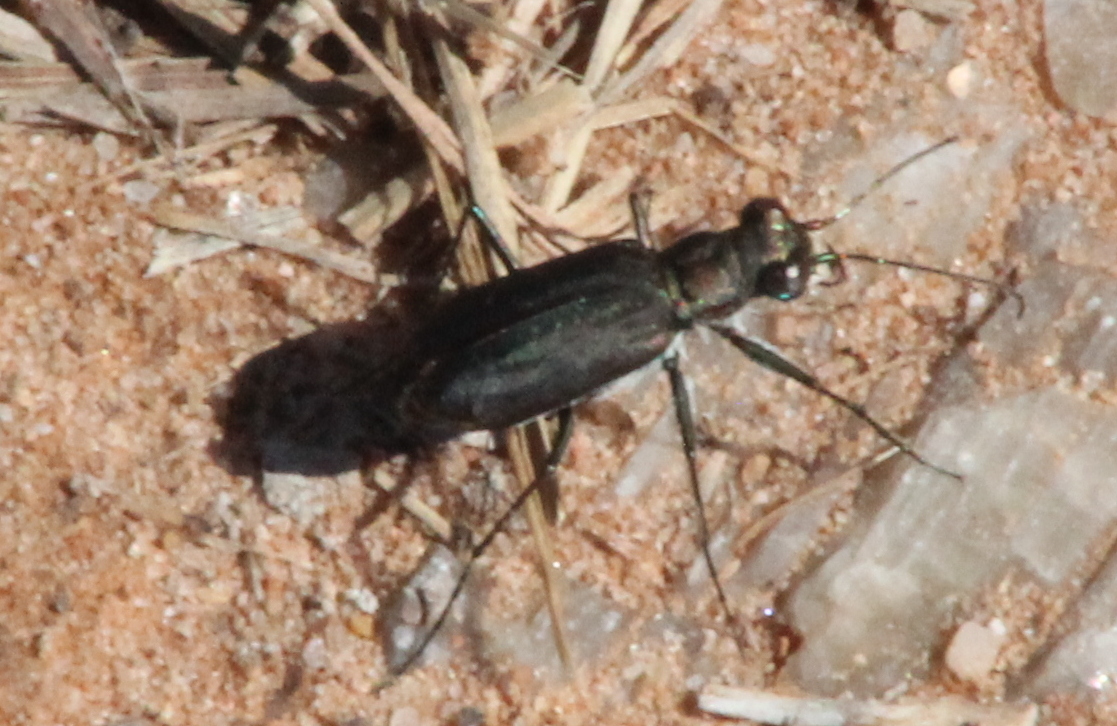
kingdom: Animalia
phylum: Arthropoda
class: Insecta
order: Coleoptera
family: Carabidae
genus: Cicindela
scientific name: Cicindela punctulata
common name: Punctured tiger beetle
